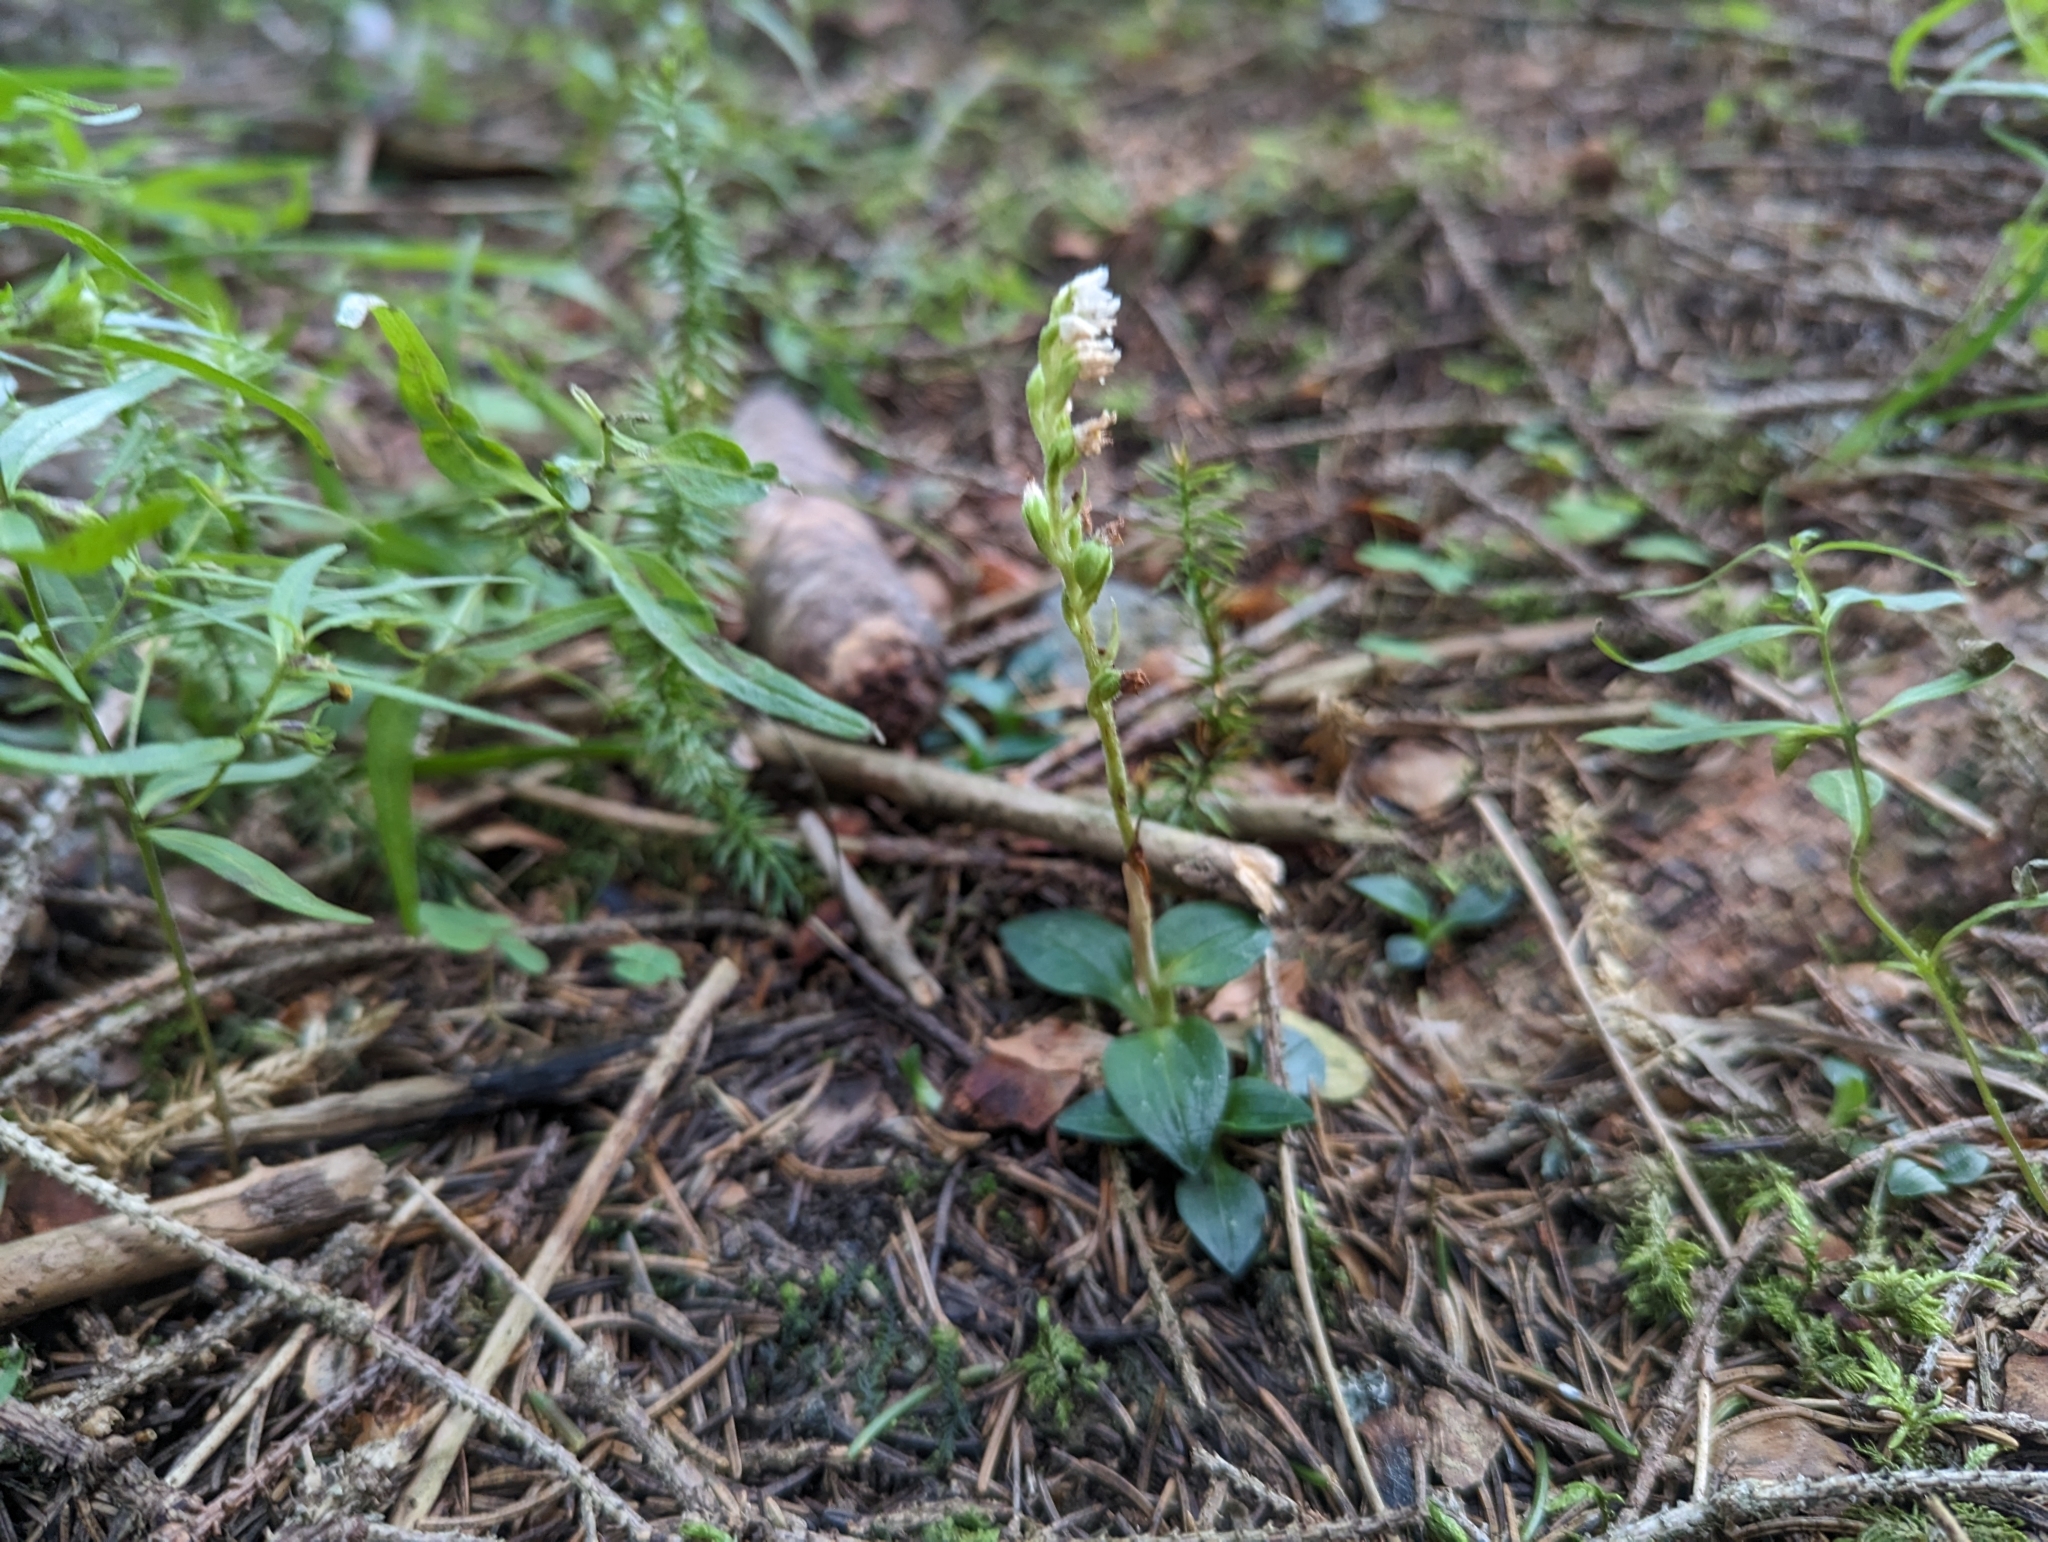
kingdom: Plantae
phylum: Tracheophyta
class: Liliopsida
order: Asparagales
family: Orchidaceae
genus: Goodyera
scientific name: Goodyera repens
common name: Creeping lady's-tresses
